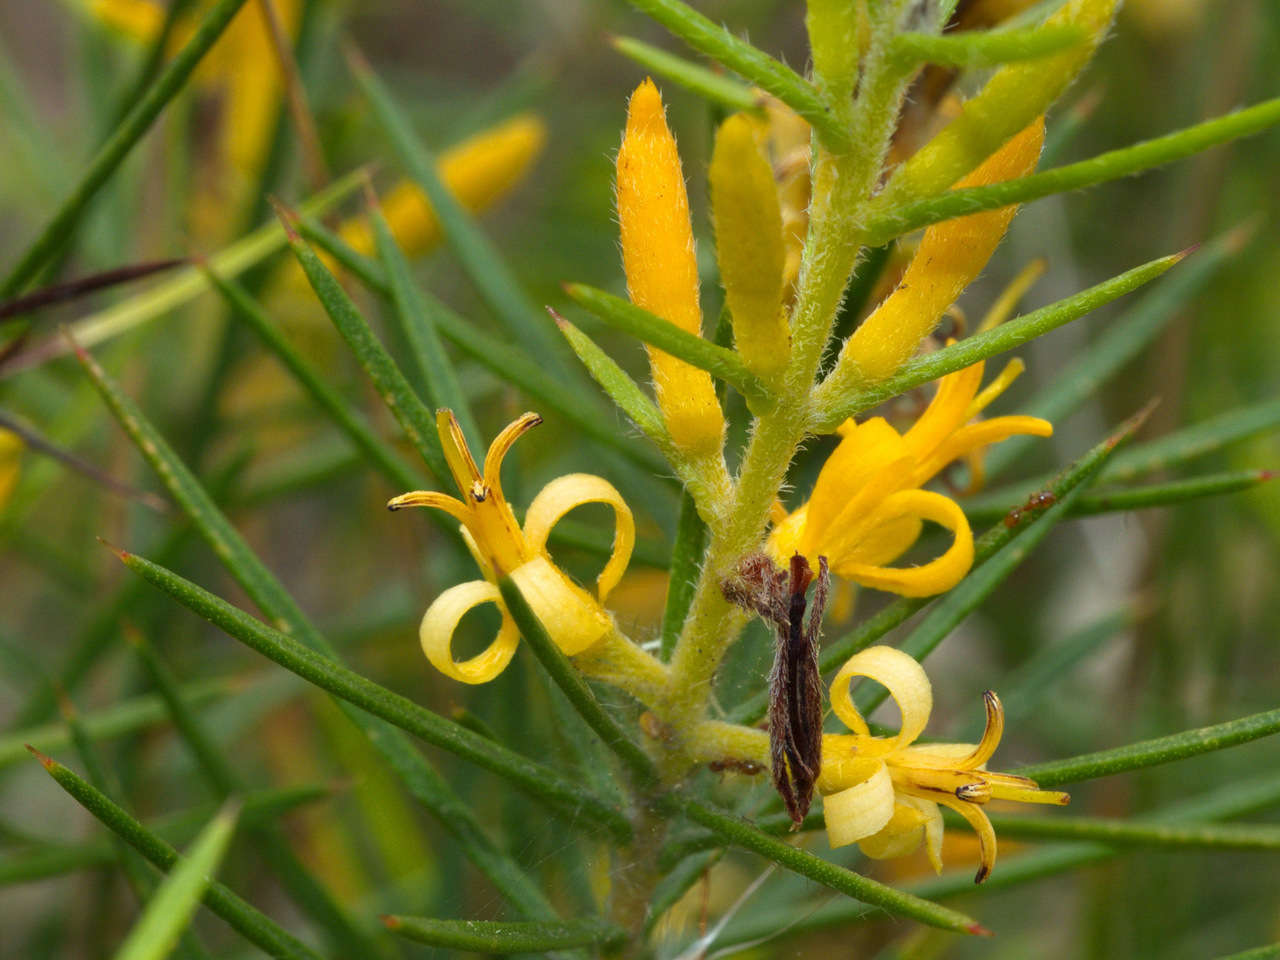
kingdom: Plantae
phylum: Tracheophyta
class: Magnoliopsida
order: Proteales
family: Proteaceae
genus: Persoonia
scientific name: Persoonia juniperina
